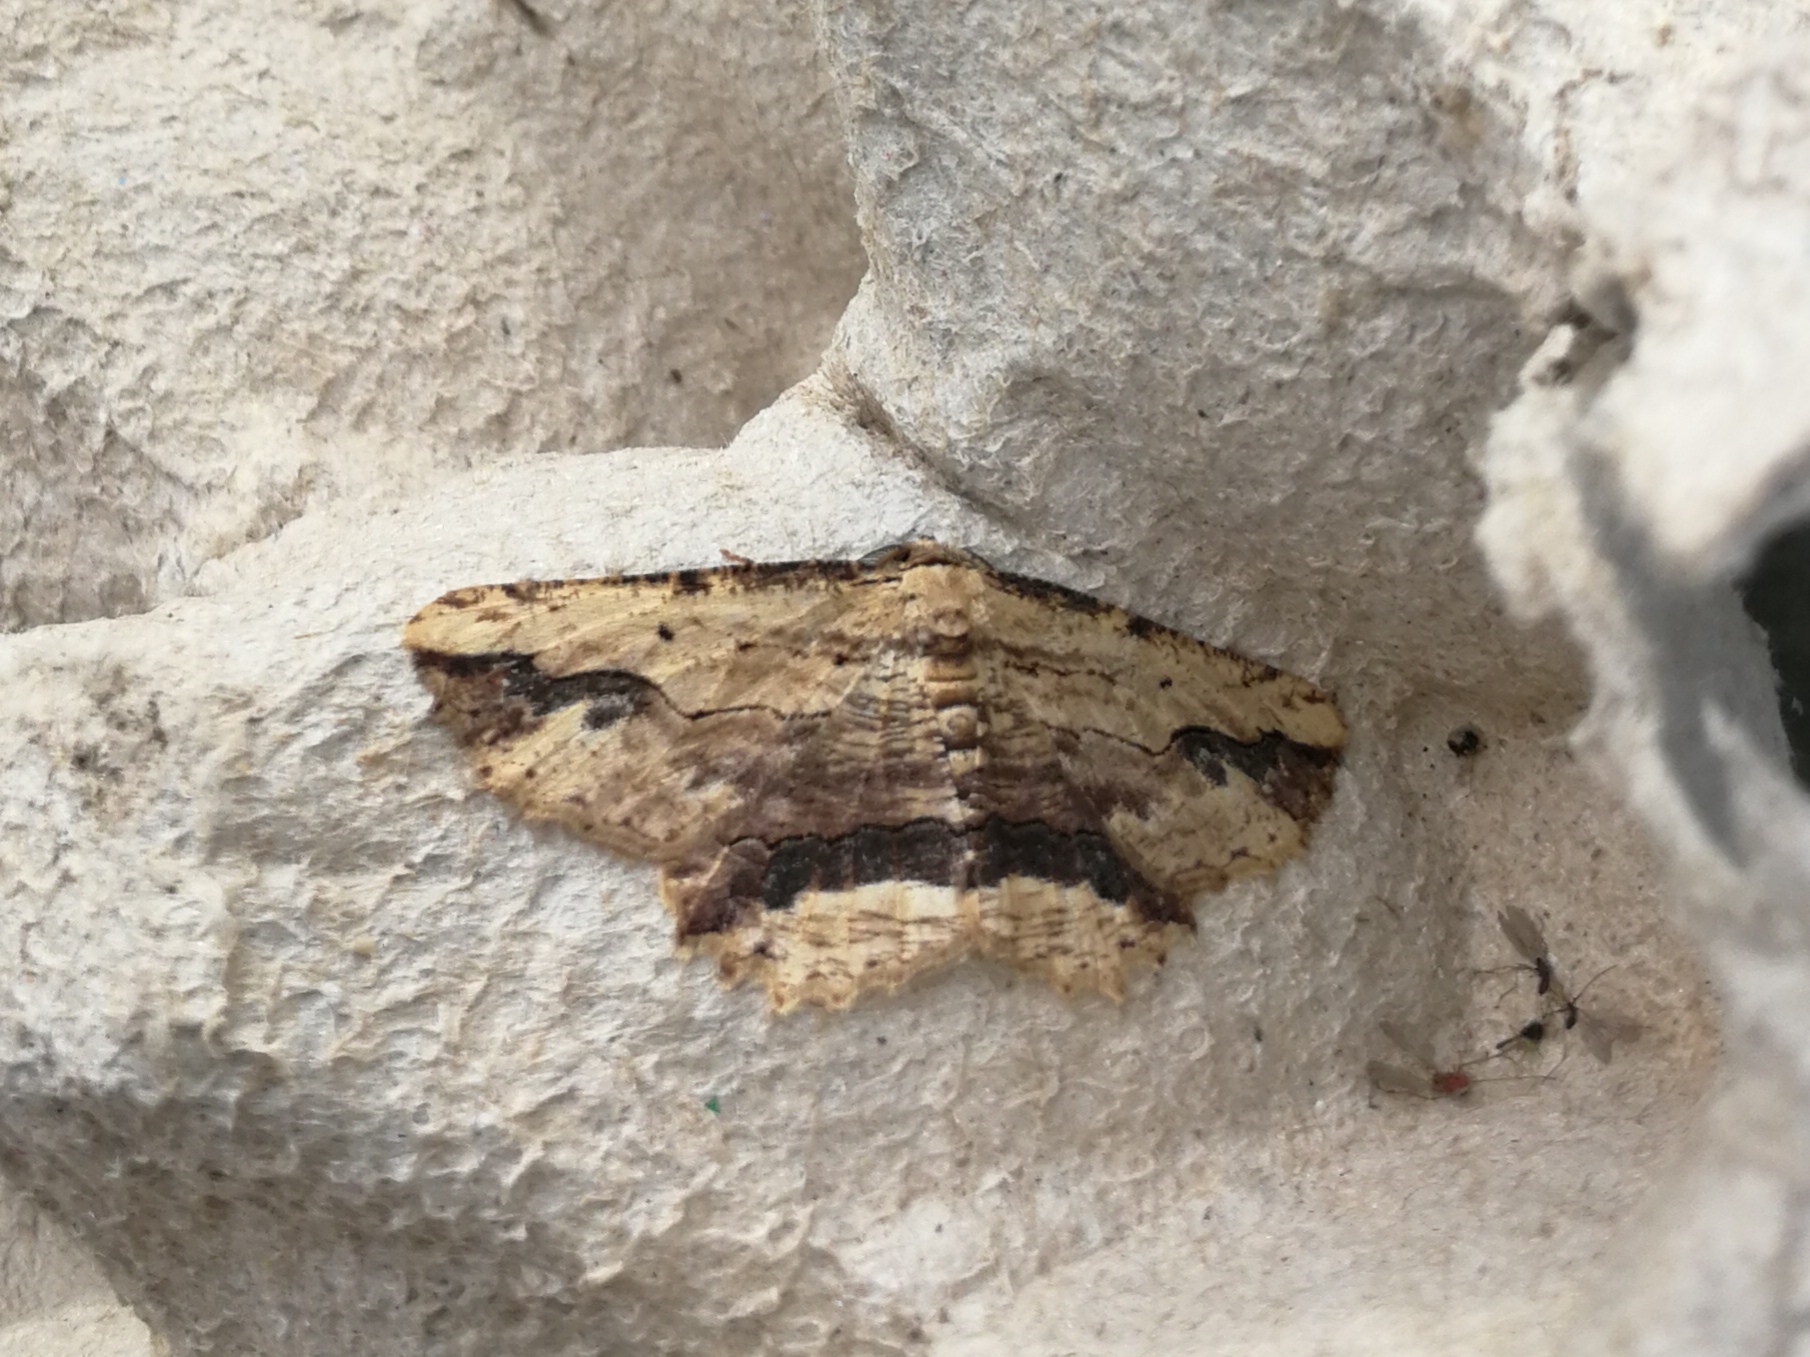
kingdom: Animalia
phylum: Arthropoda
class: Insecta
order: Lepidoptera
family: Geometridae
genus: Menophra
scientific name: Menophra abruptaria
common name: Waved umber
